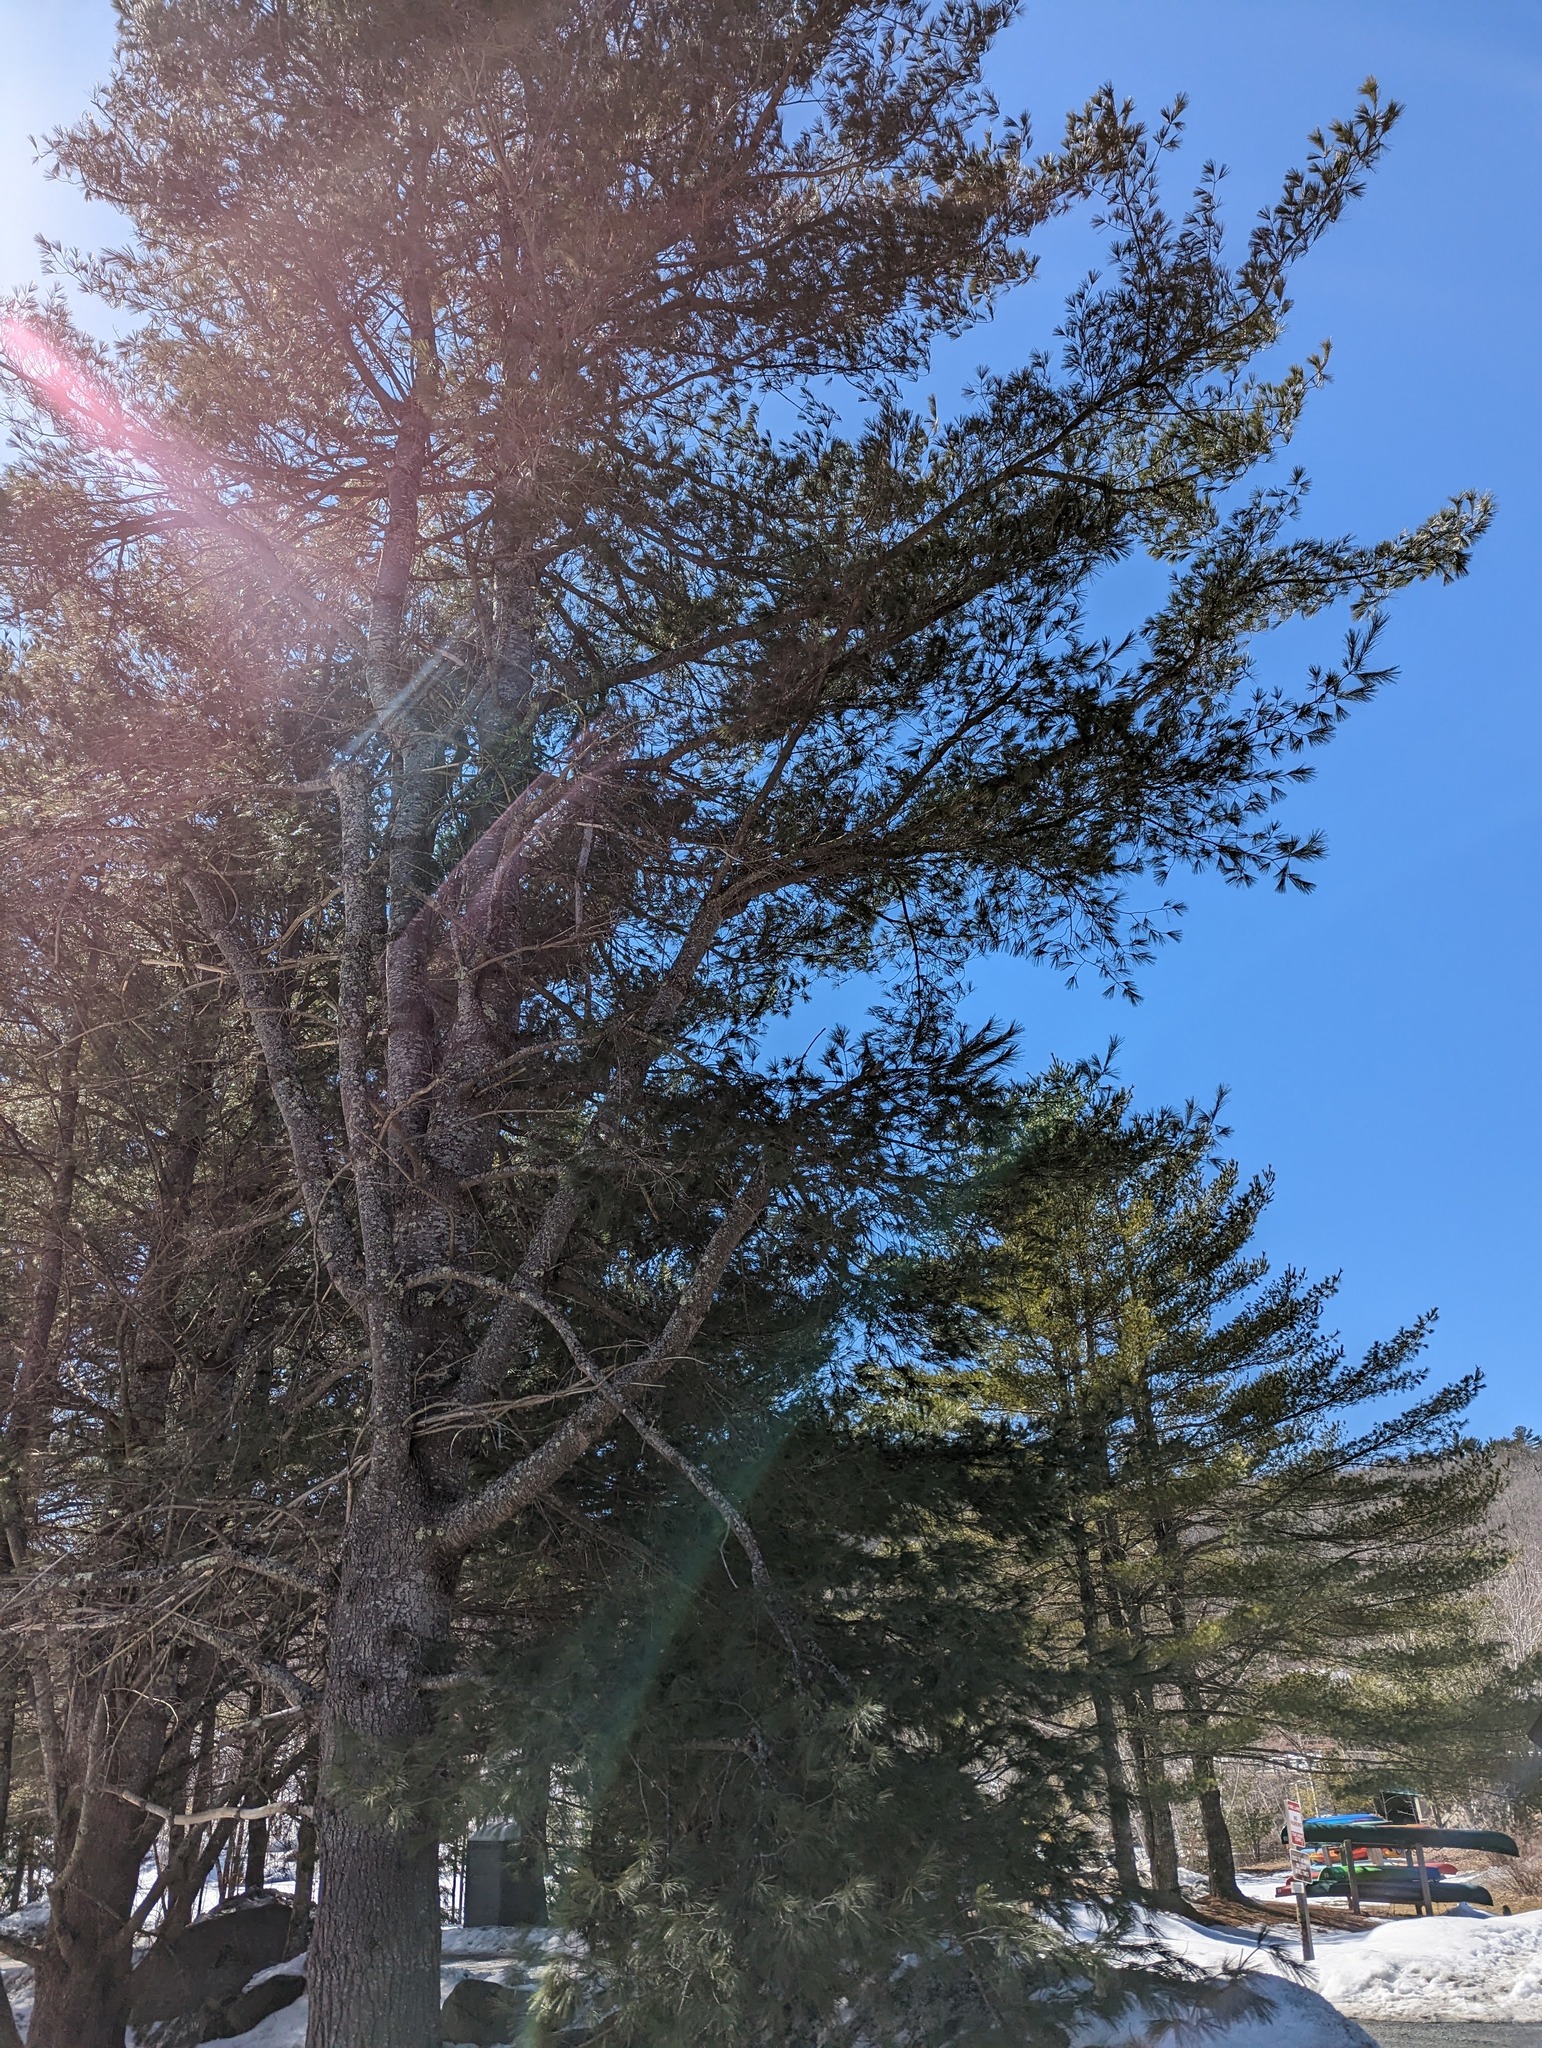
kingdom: Plantae
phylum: Tracheophyta
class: Pinopsida
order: Pinales
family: Pinaceae
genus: Pinus
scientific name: Pinus strobus
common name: Weymouth pine
